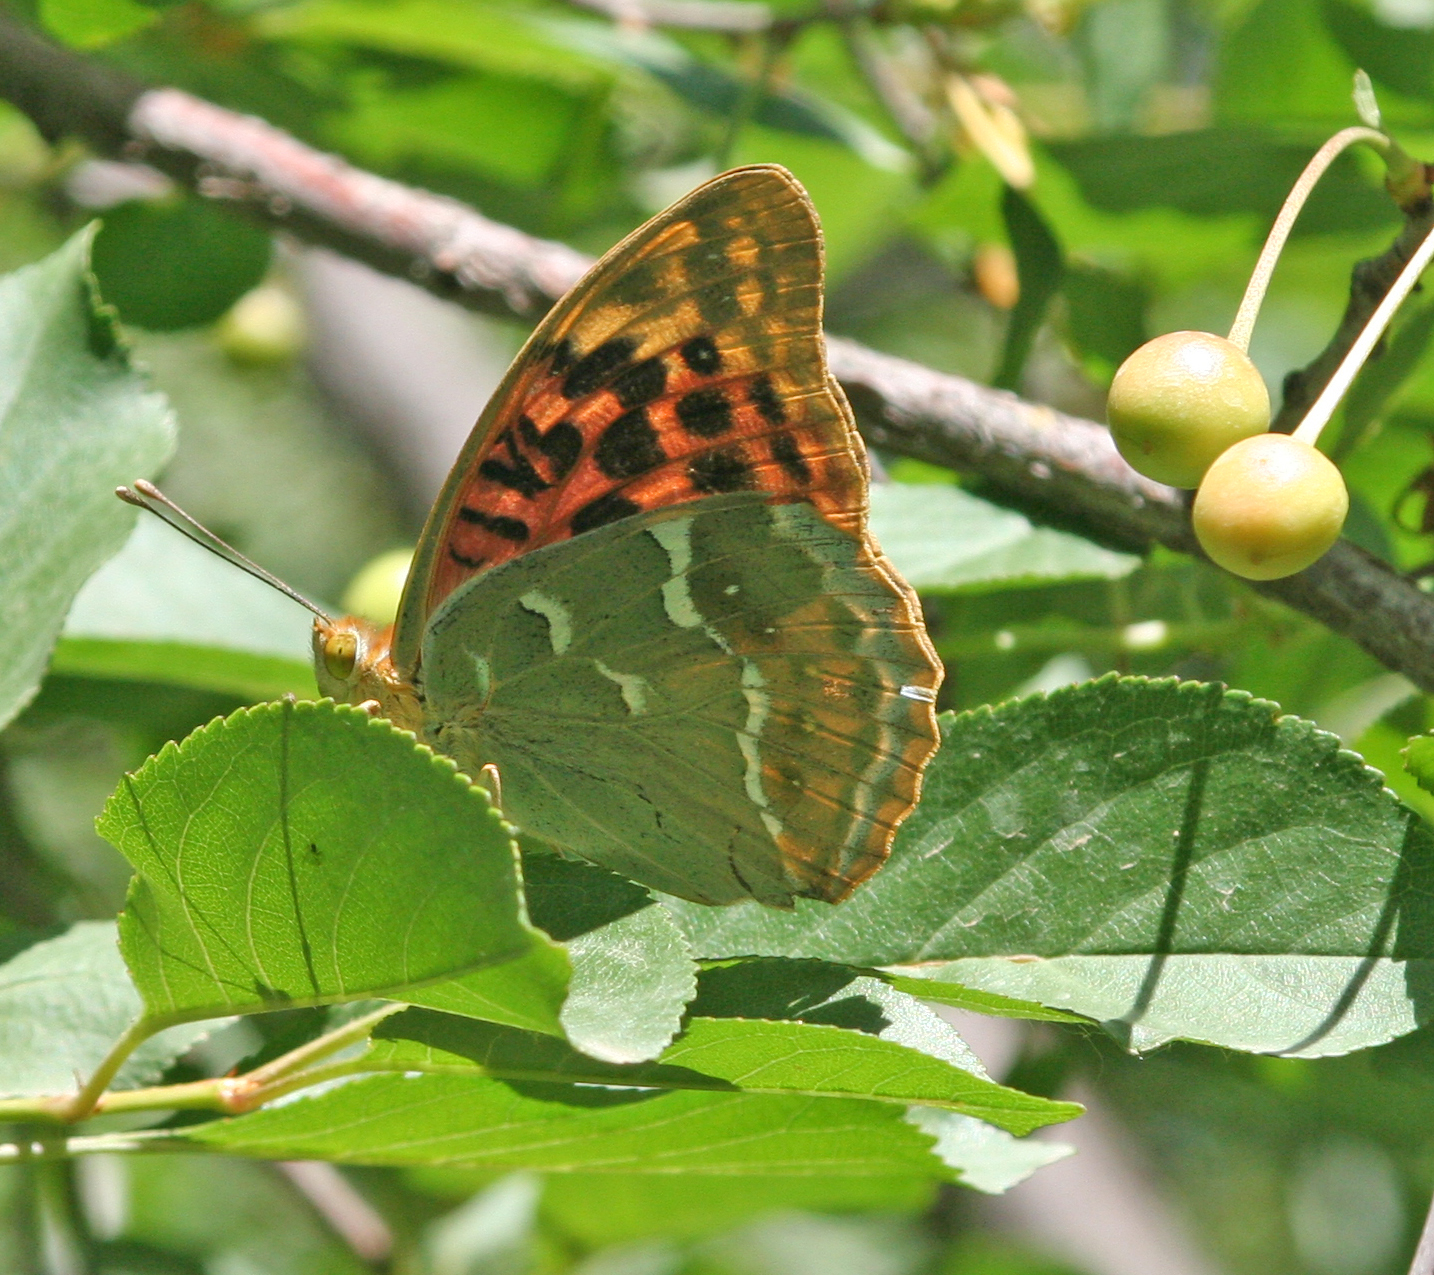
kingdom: Animalia
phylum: Arthropoda
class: Insecta
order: Lepidoptera
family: Nymphalidae
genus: Damora
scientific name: Damora pandora
